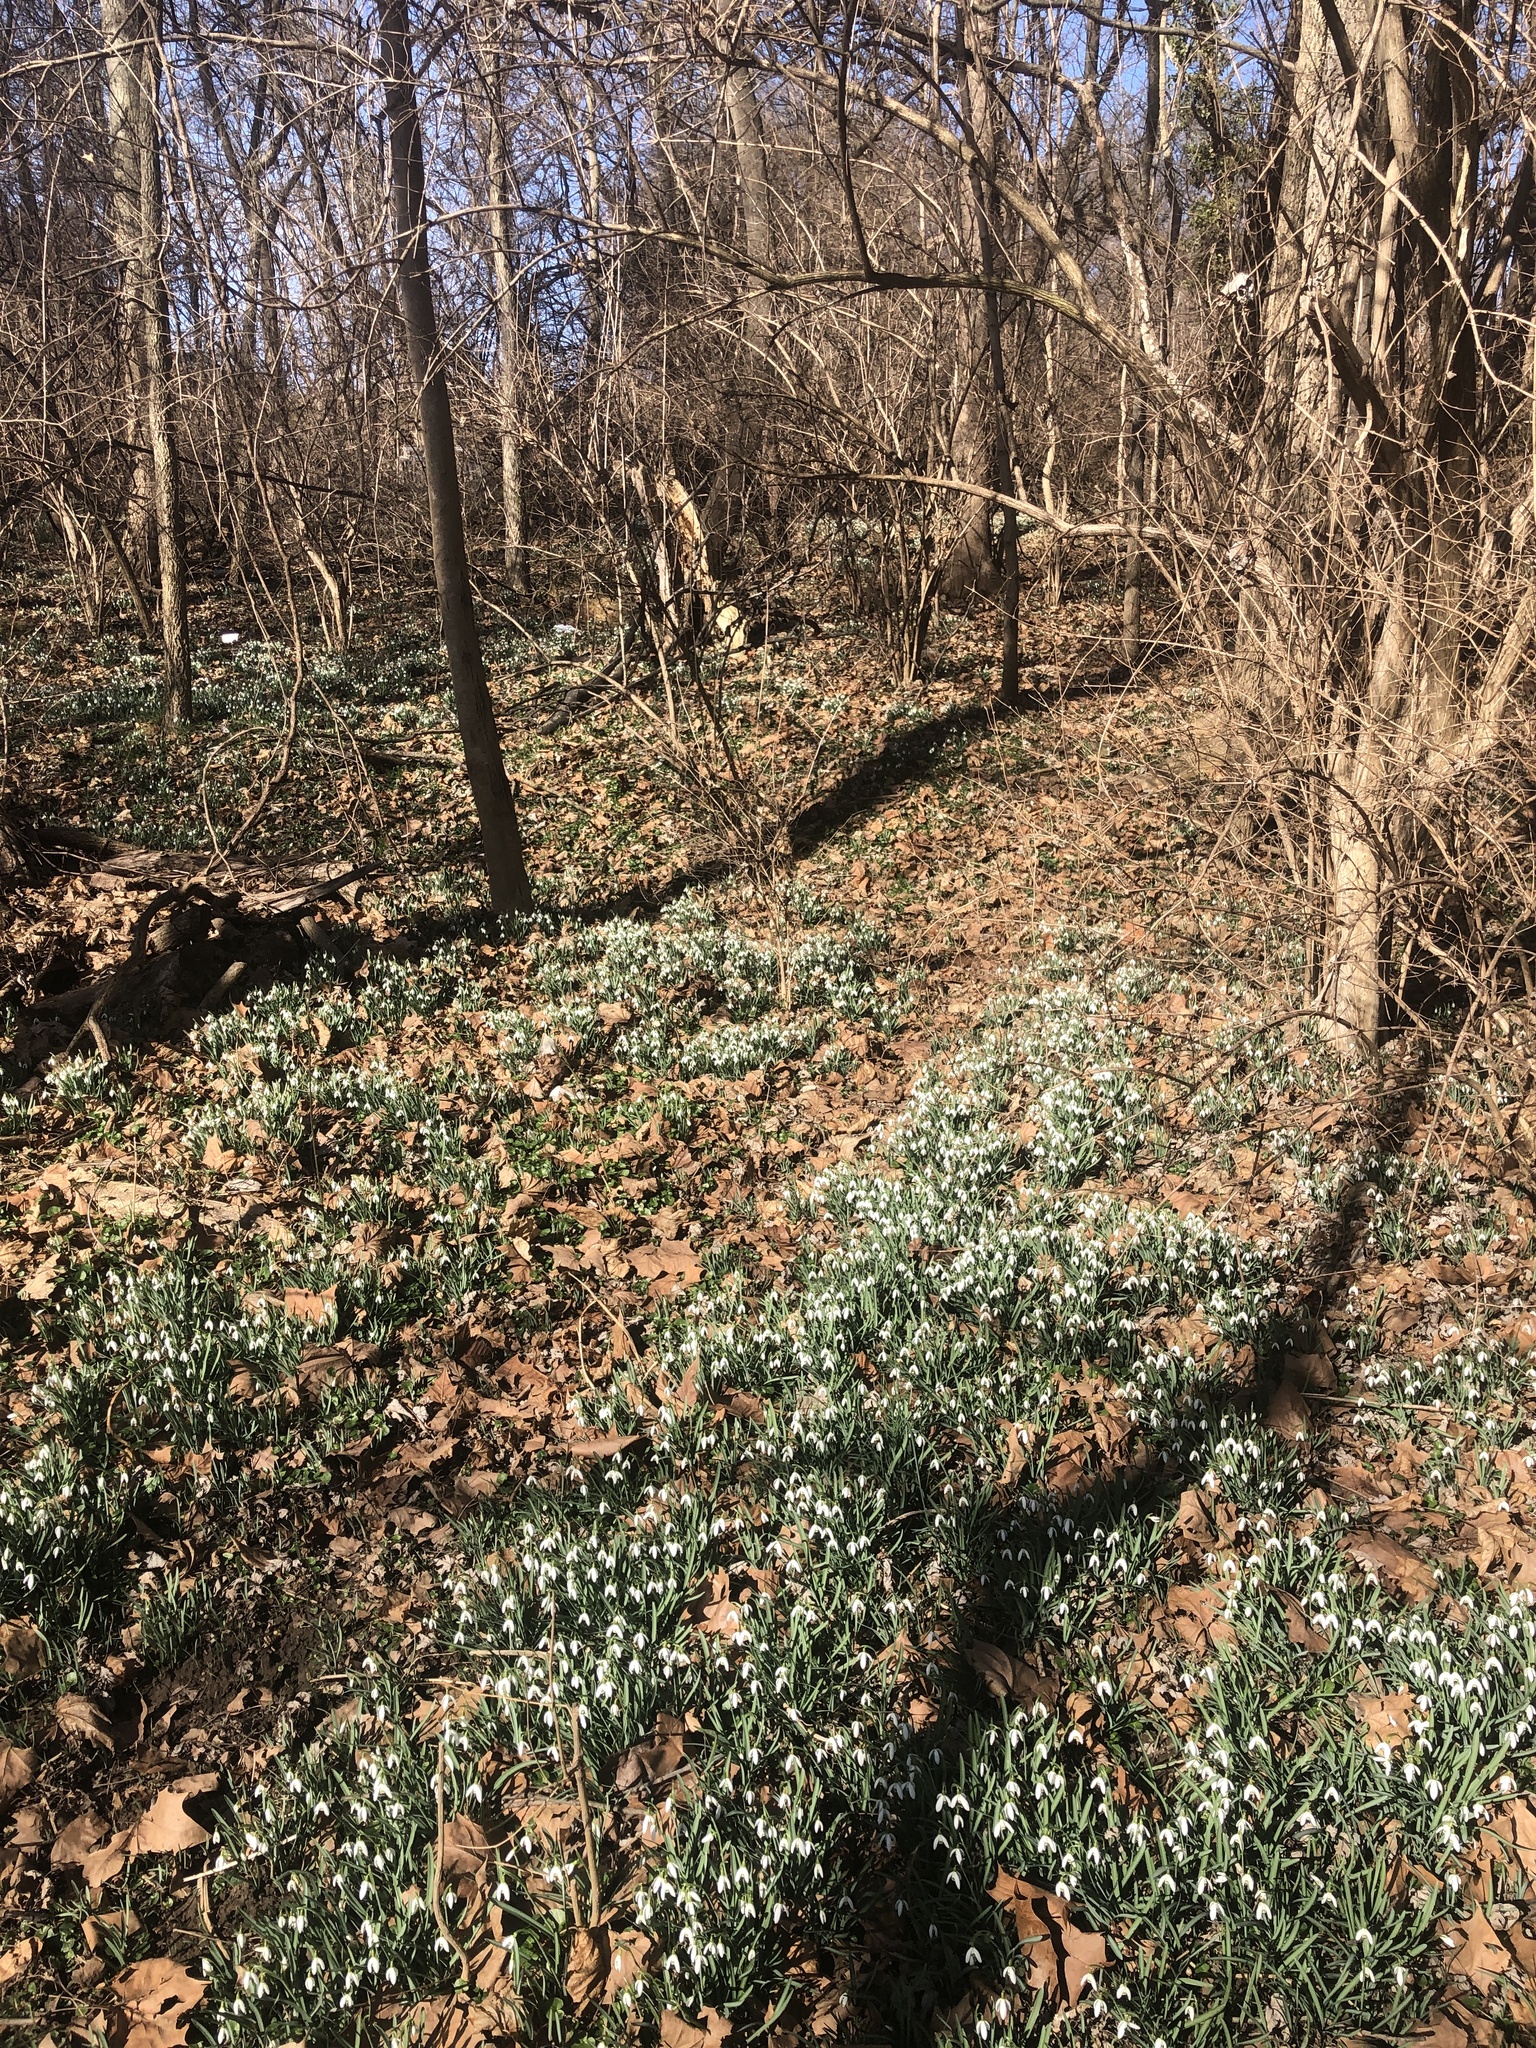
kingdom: Plantae
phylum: Tracheophyta
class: Liliopsida
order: Asparagales
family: Amaryllidaceae
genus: Galanthus
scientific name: Galanthus nivalis
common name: Snowdrop
